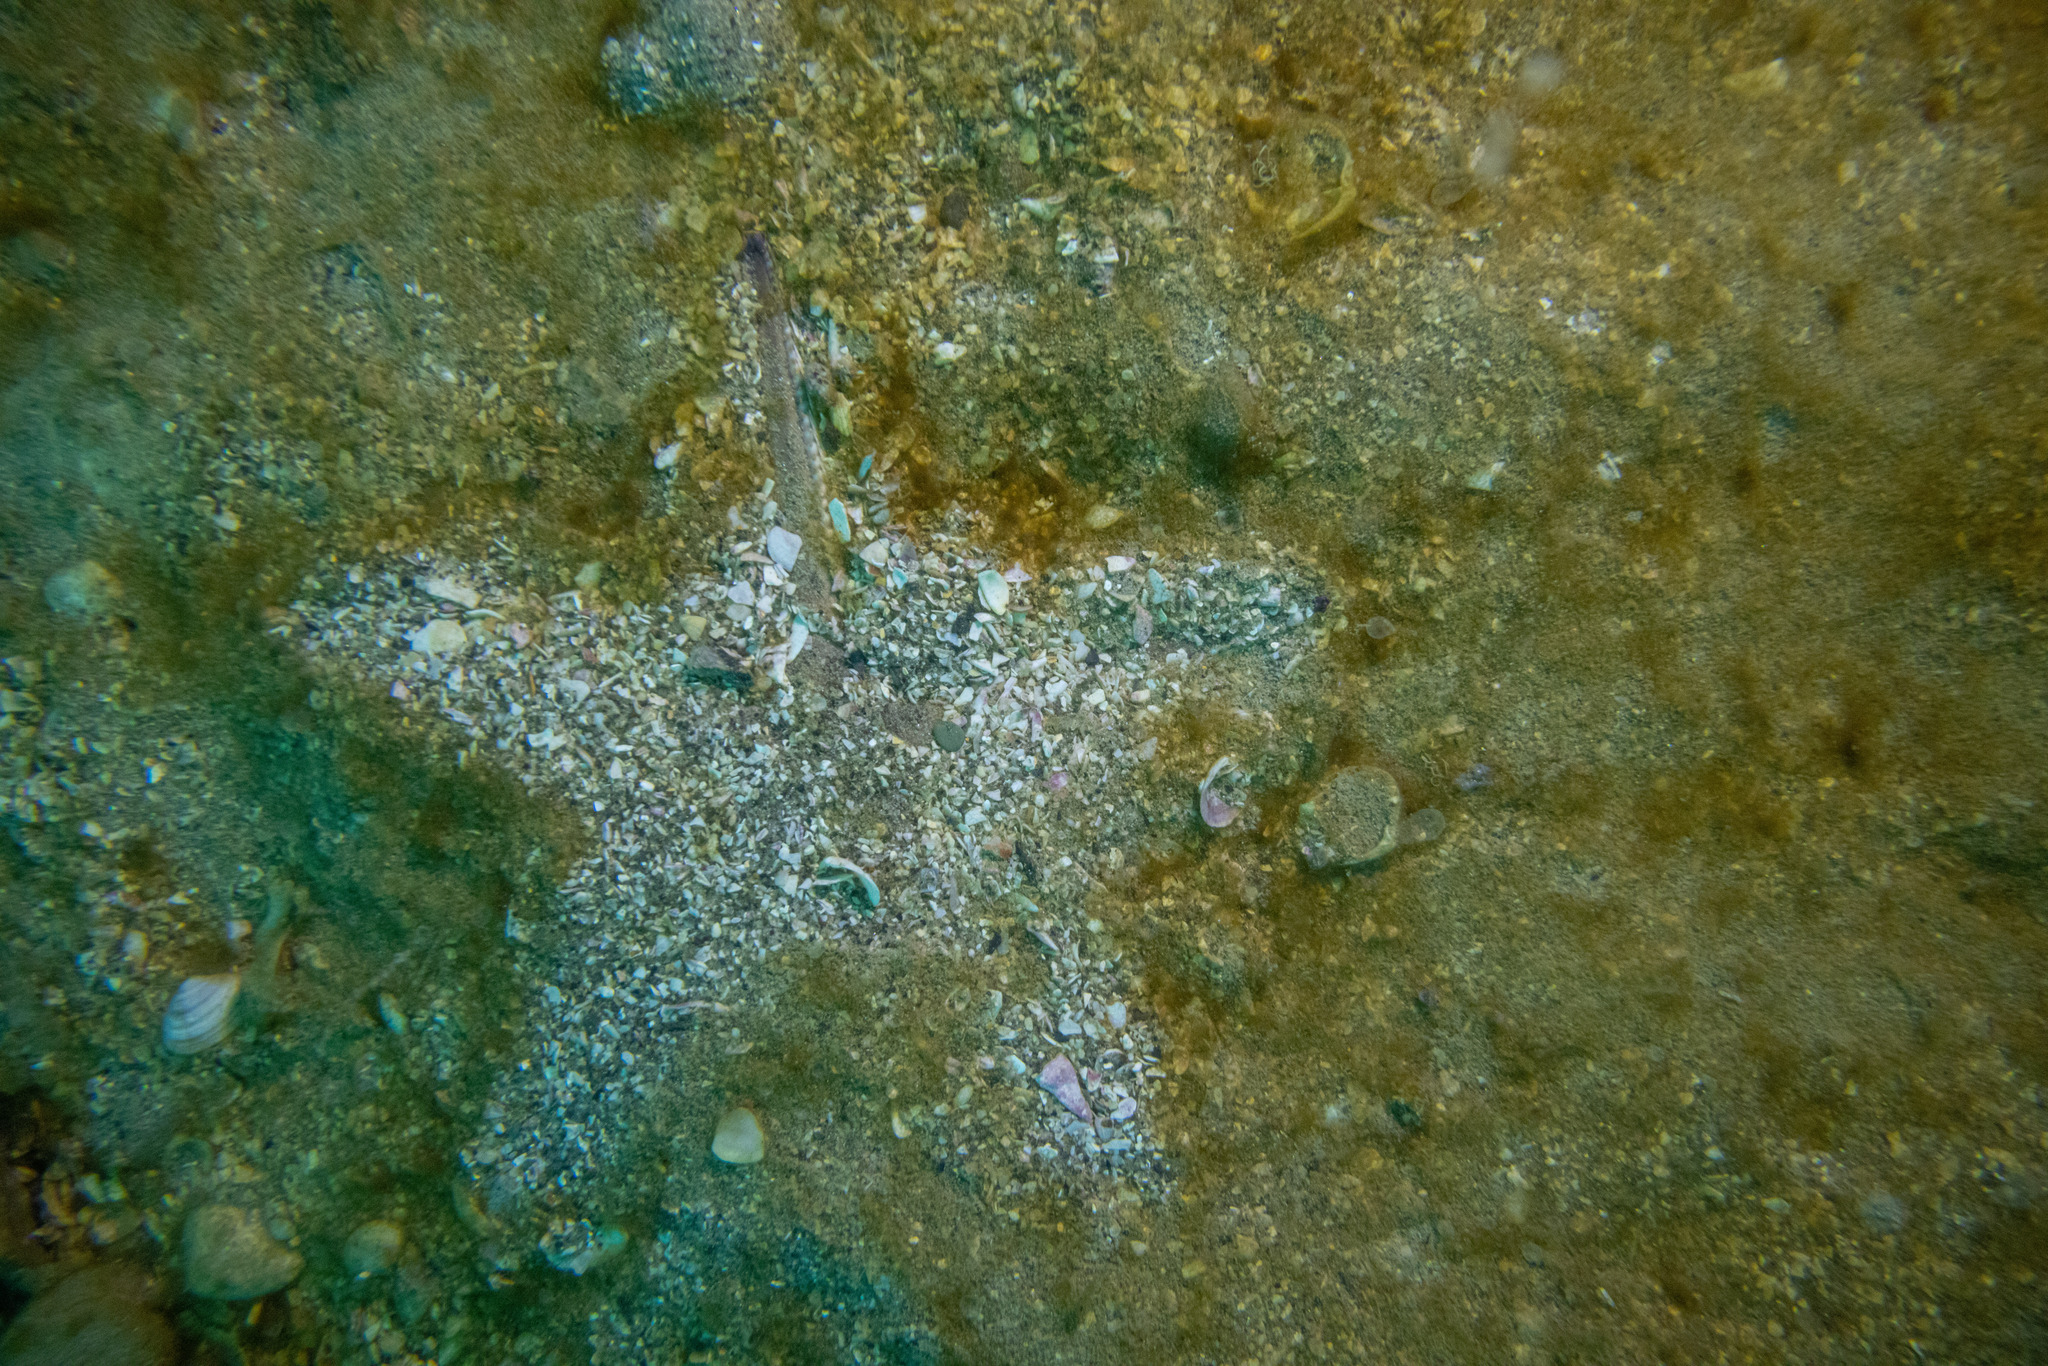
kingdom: Animalia
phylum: Echinodermata
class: Asteroidea
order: Paxillosida
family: Astropectinidae
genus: Astropecten
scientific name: Astropecten polyacanthus
